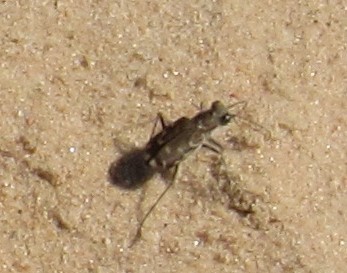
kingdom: Animalia
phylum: Arthropoda
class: Insecta
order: Coleoptera
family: Carabidae
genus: Cicindela
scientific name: Cicindela repanda
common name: Bronzed tiger beetle
